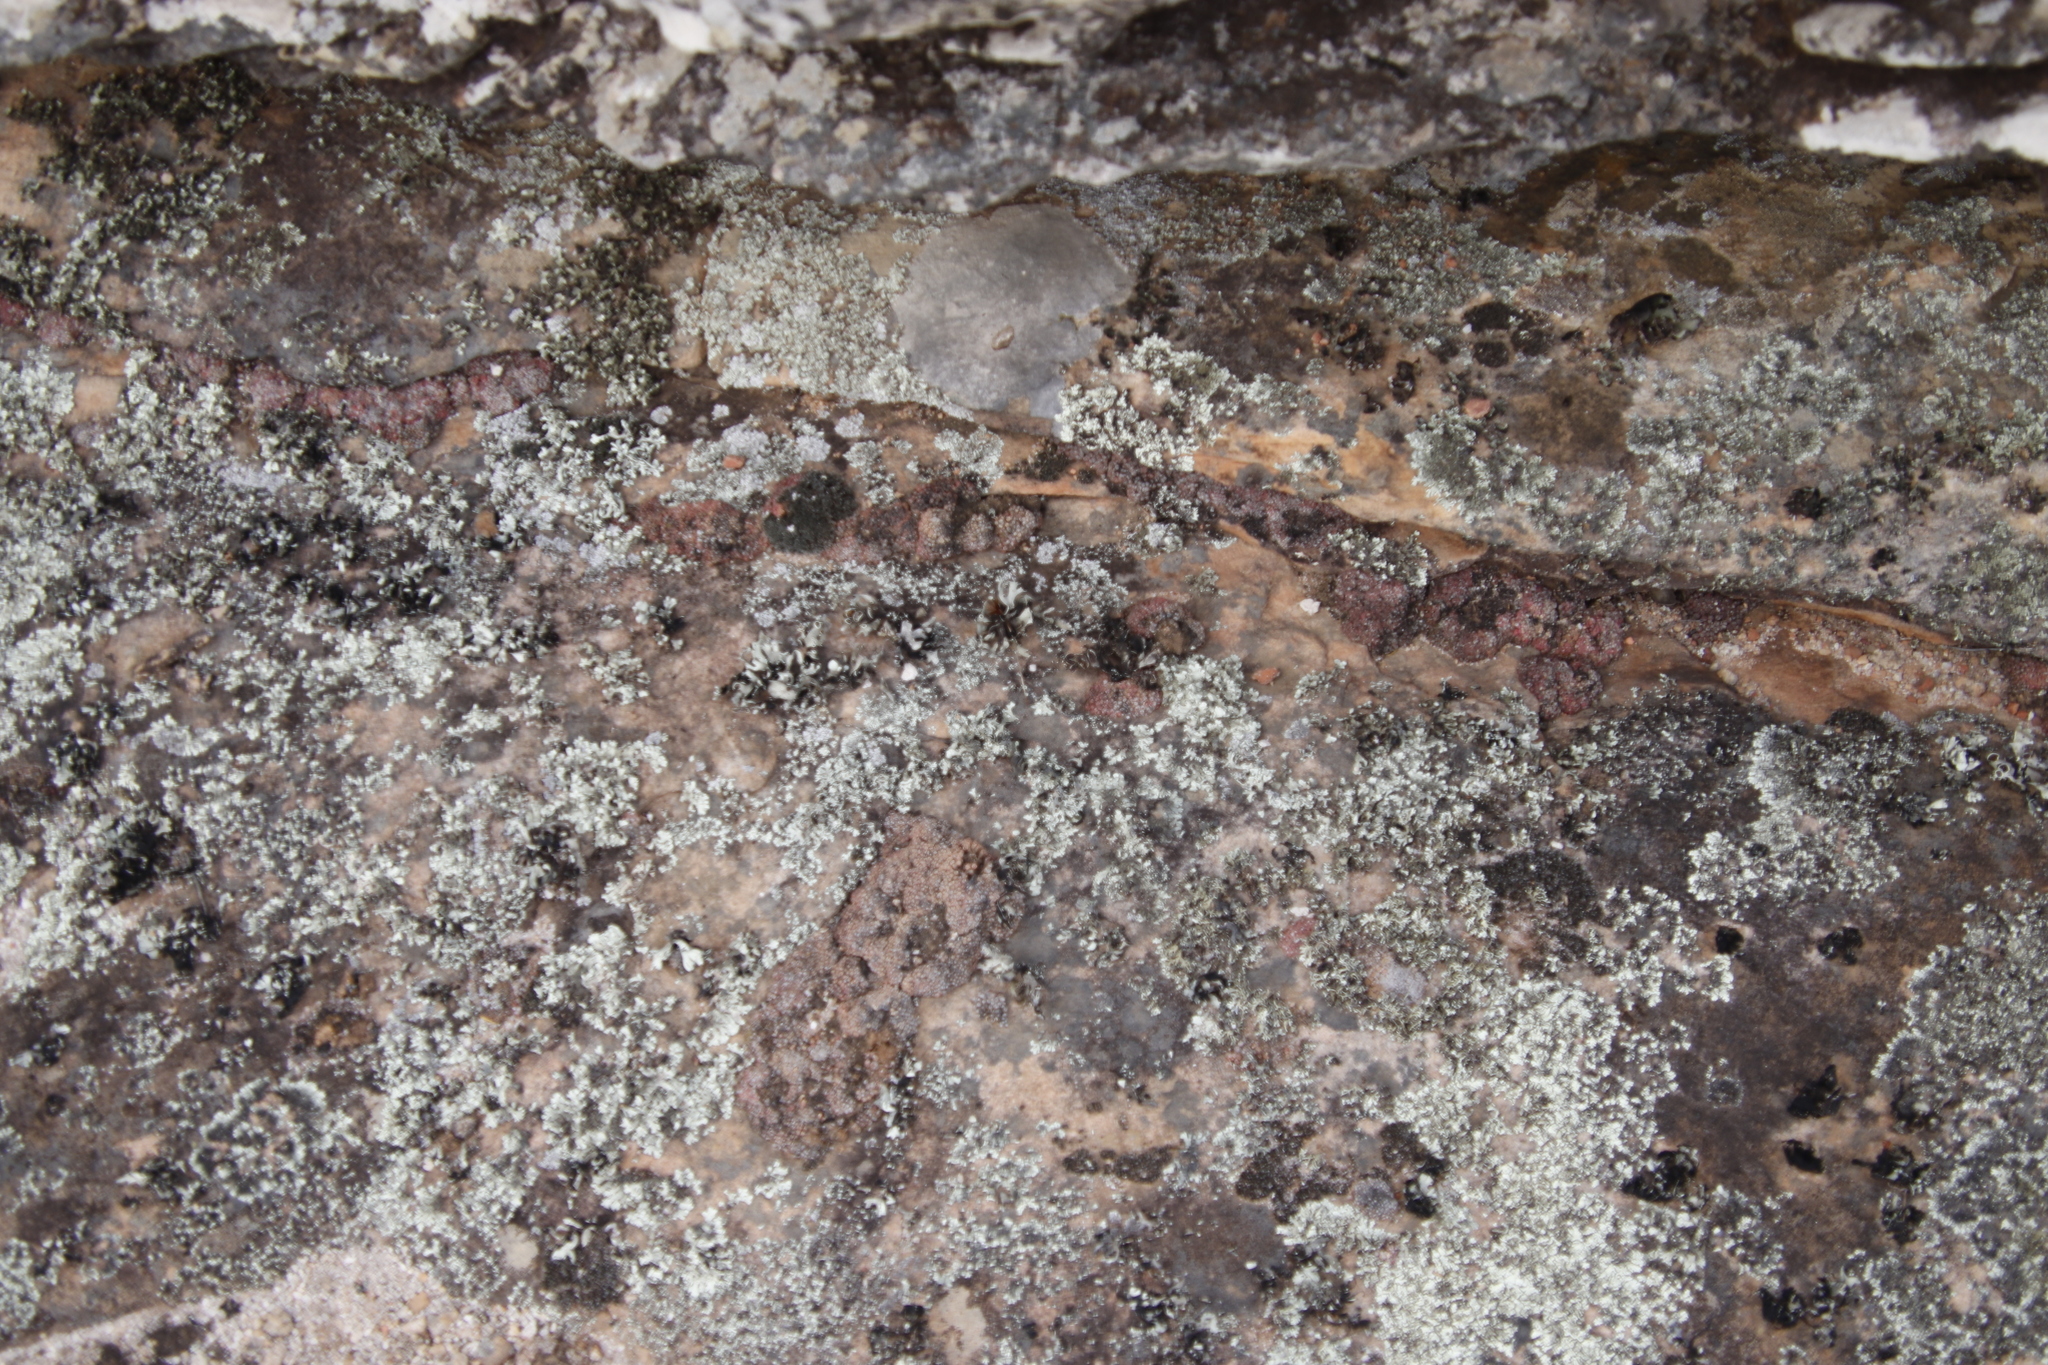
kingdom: Plantae
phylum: Tracheophyta
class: Magnoliopsida
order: Caryophyllales
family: Aizoaceae
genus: Conophytum
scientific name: Conophytum swanepoelianum
